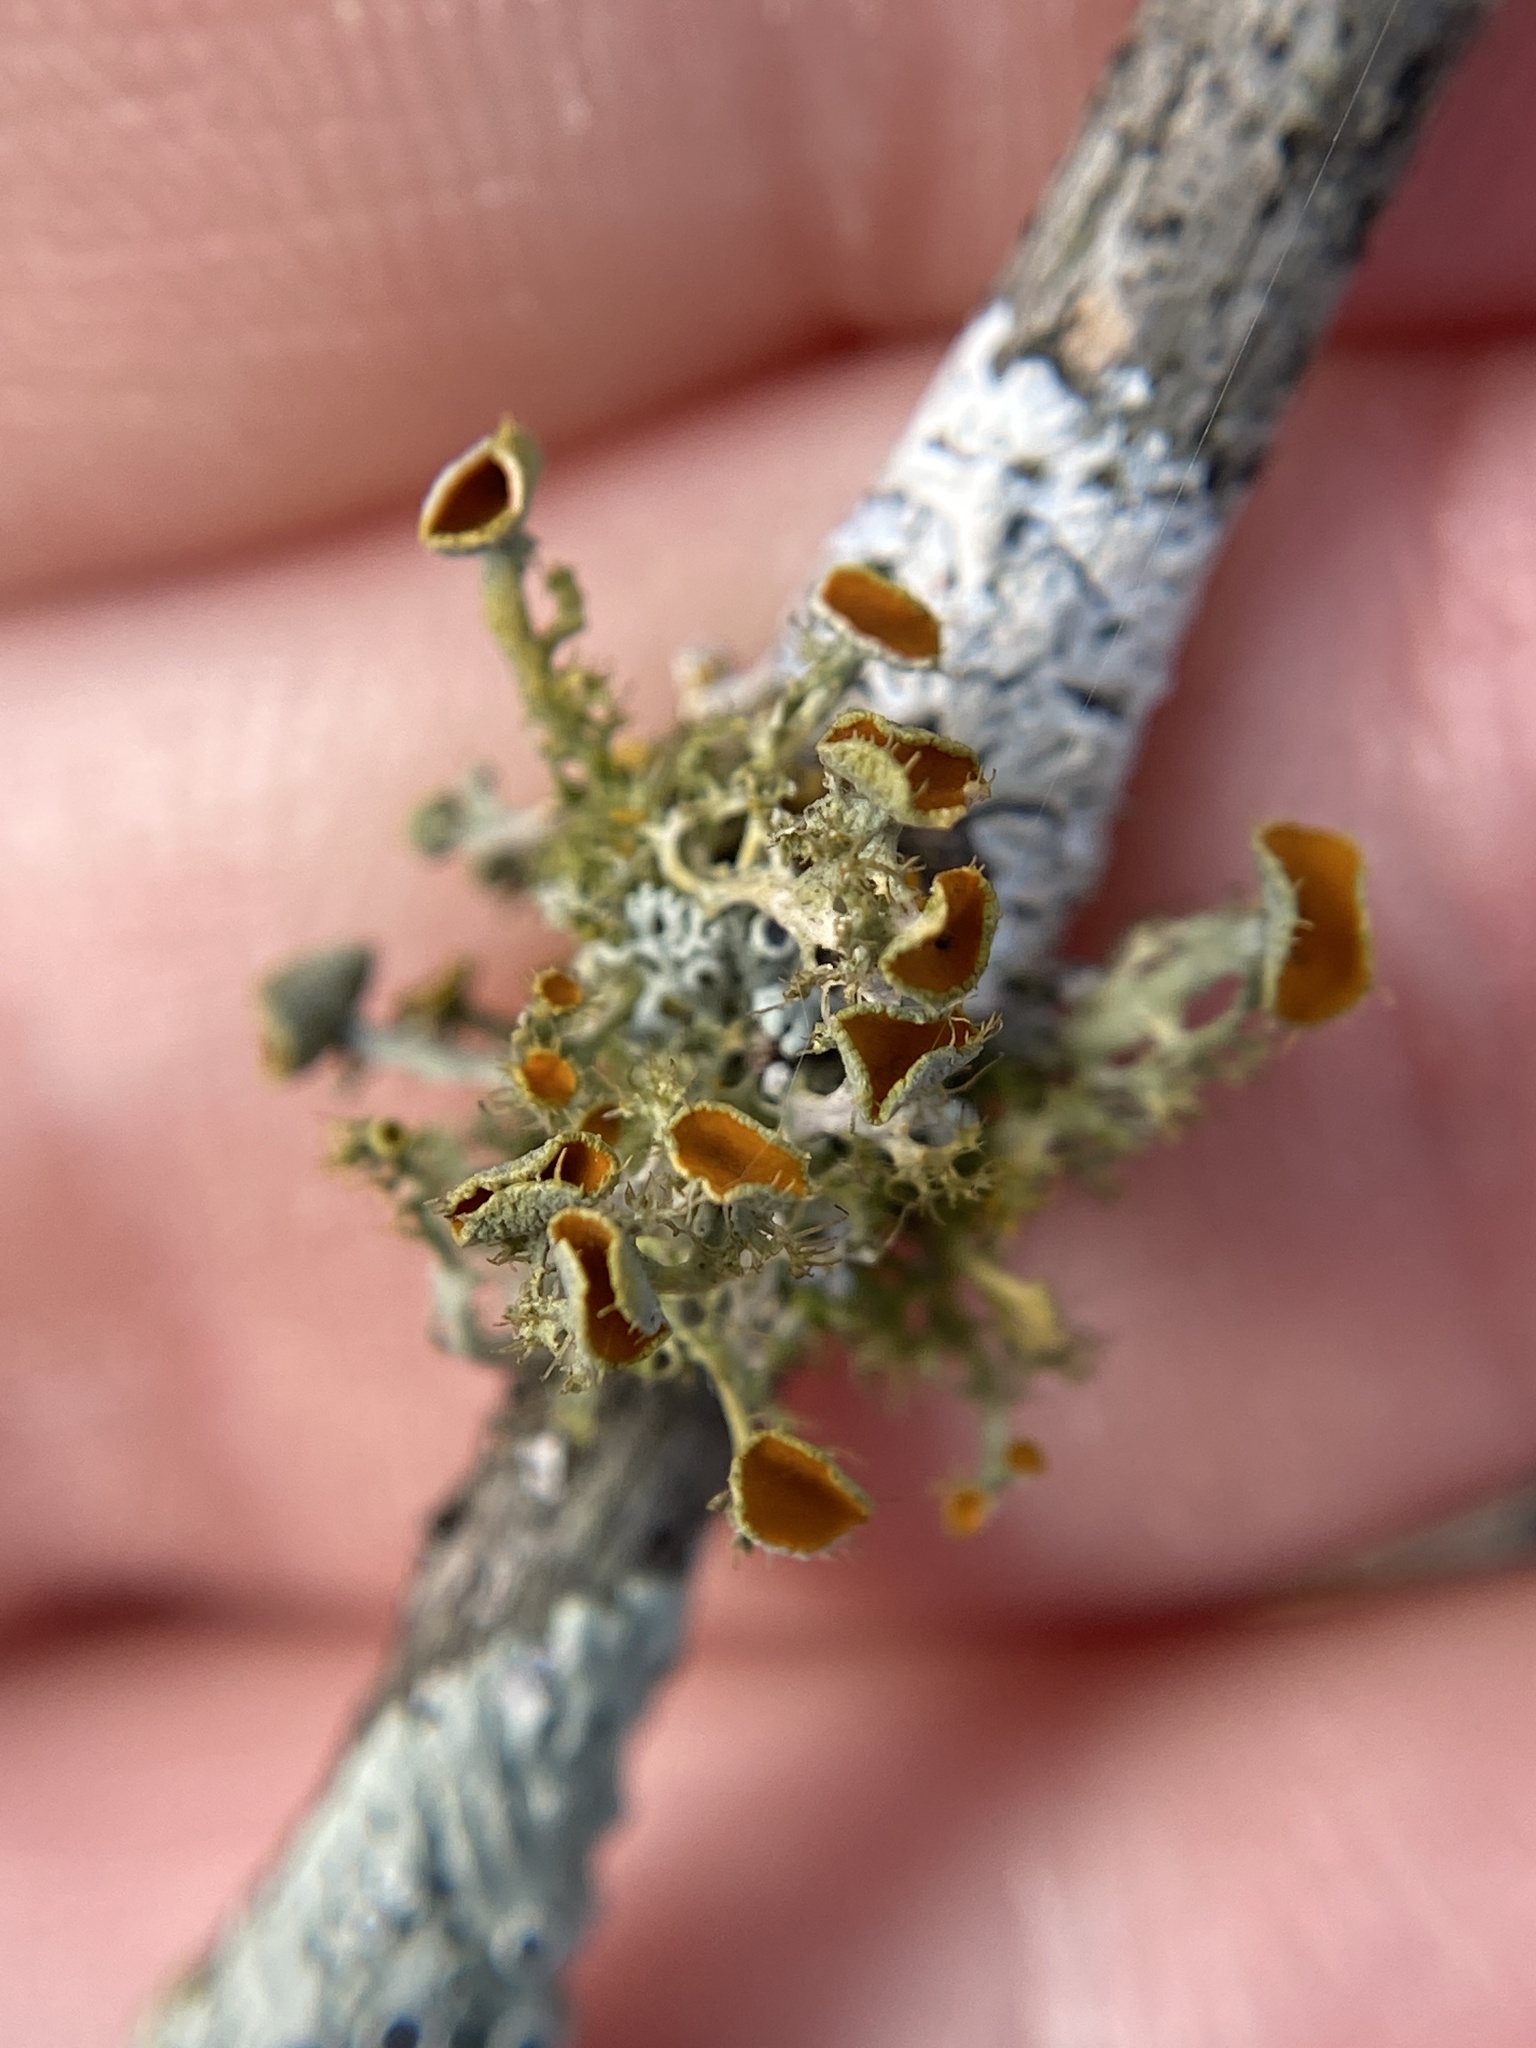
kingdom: Fungi
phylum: Ascomycota
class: Lecanoromycetes
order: Teloschistales
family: Teloschistaceae
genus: Niorma
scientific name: Niorma chrysophthalma
